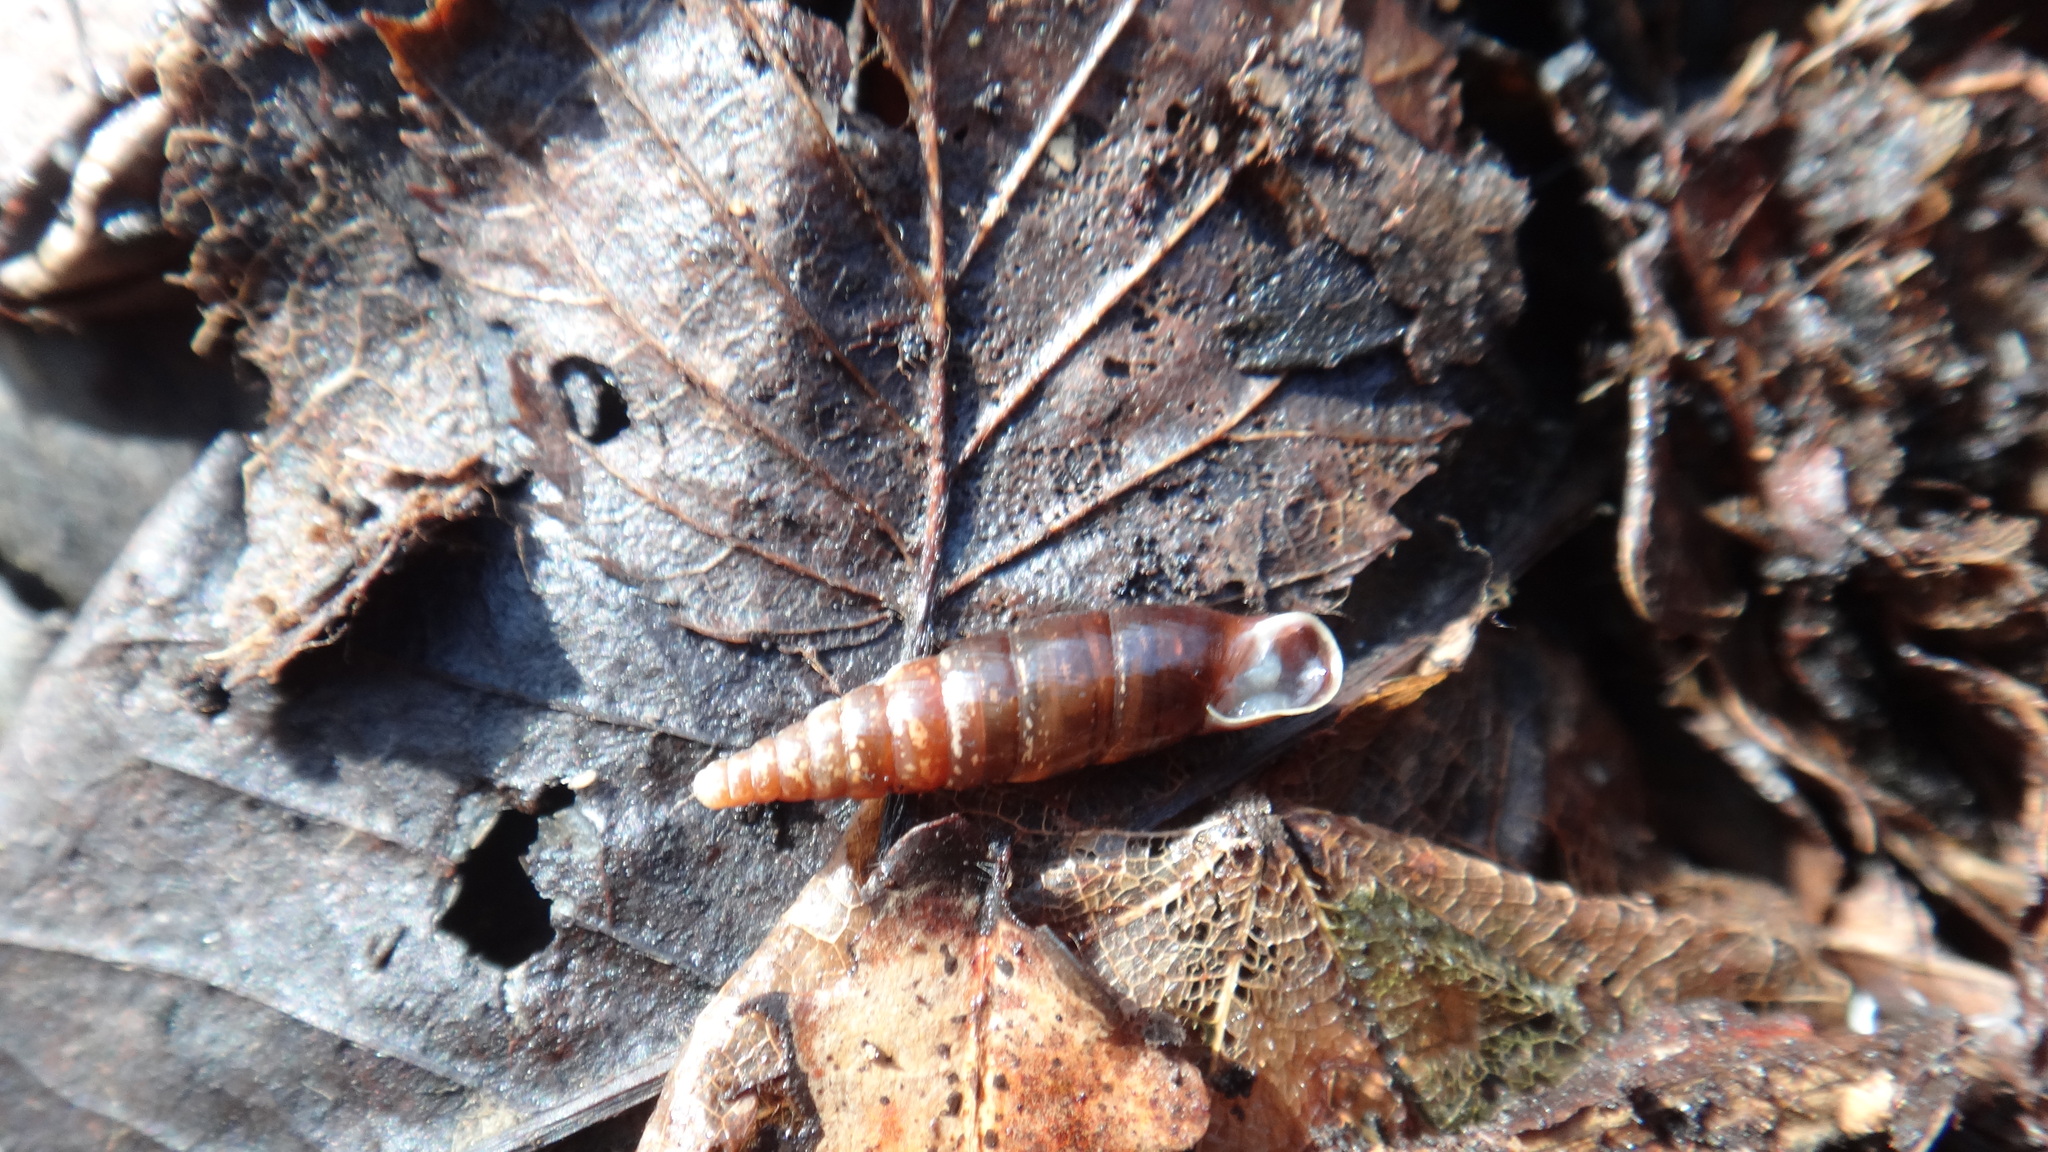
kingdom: Animalia
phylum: Mollusca
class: Gastropoda
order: Stylommatophora
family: Clausiliidae
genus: Cochlodina
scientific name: Cochlodina laminata
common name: Plaited door snail
